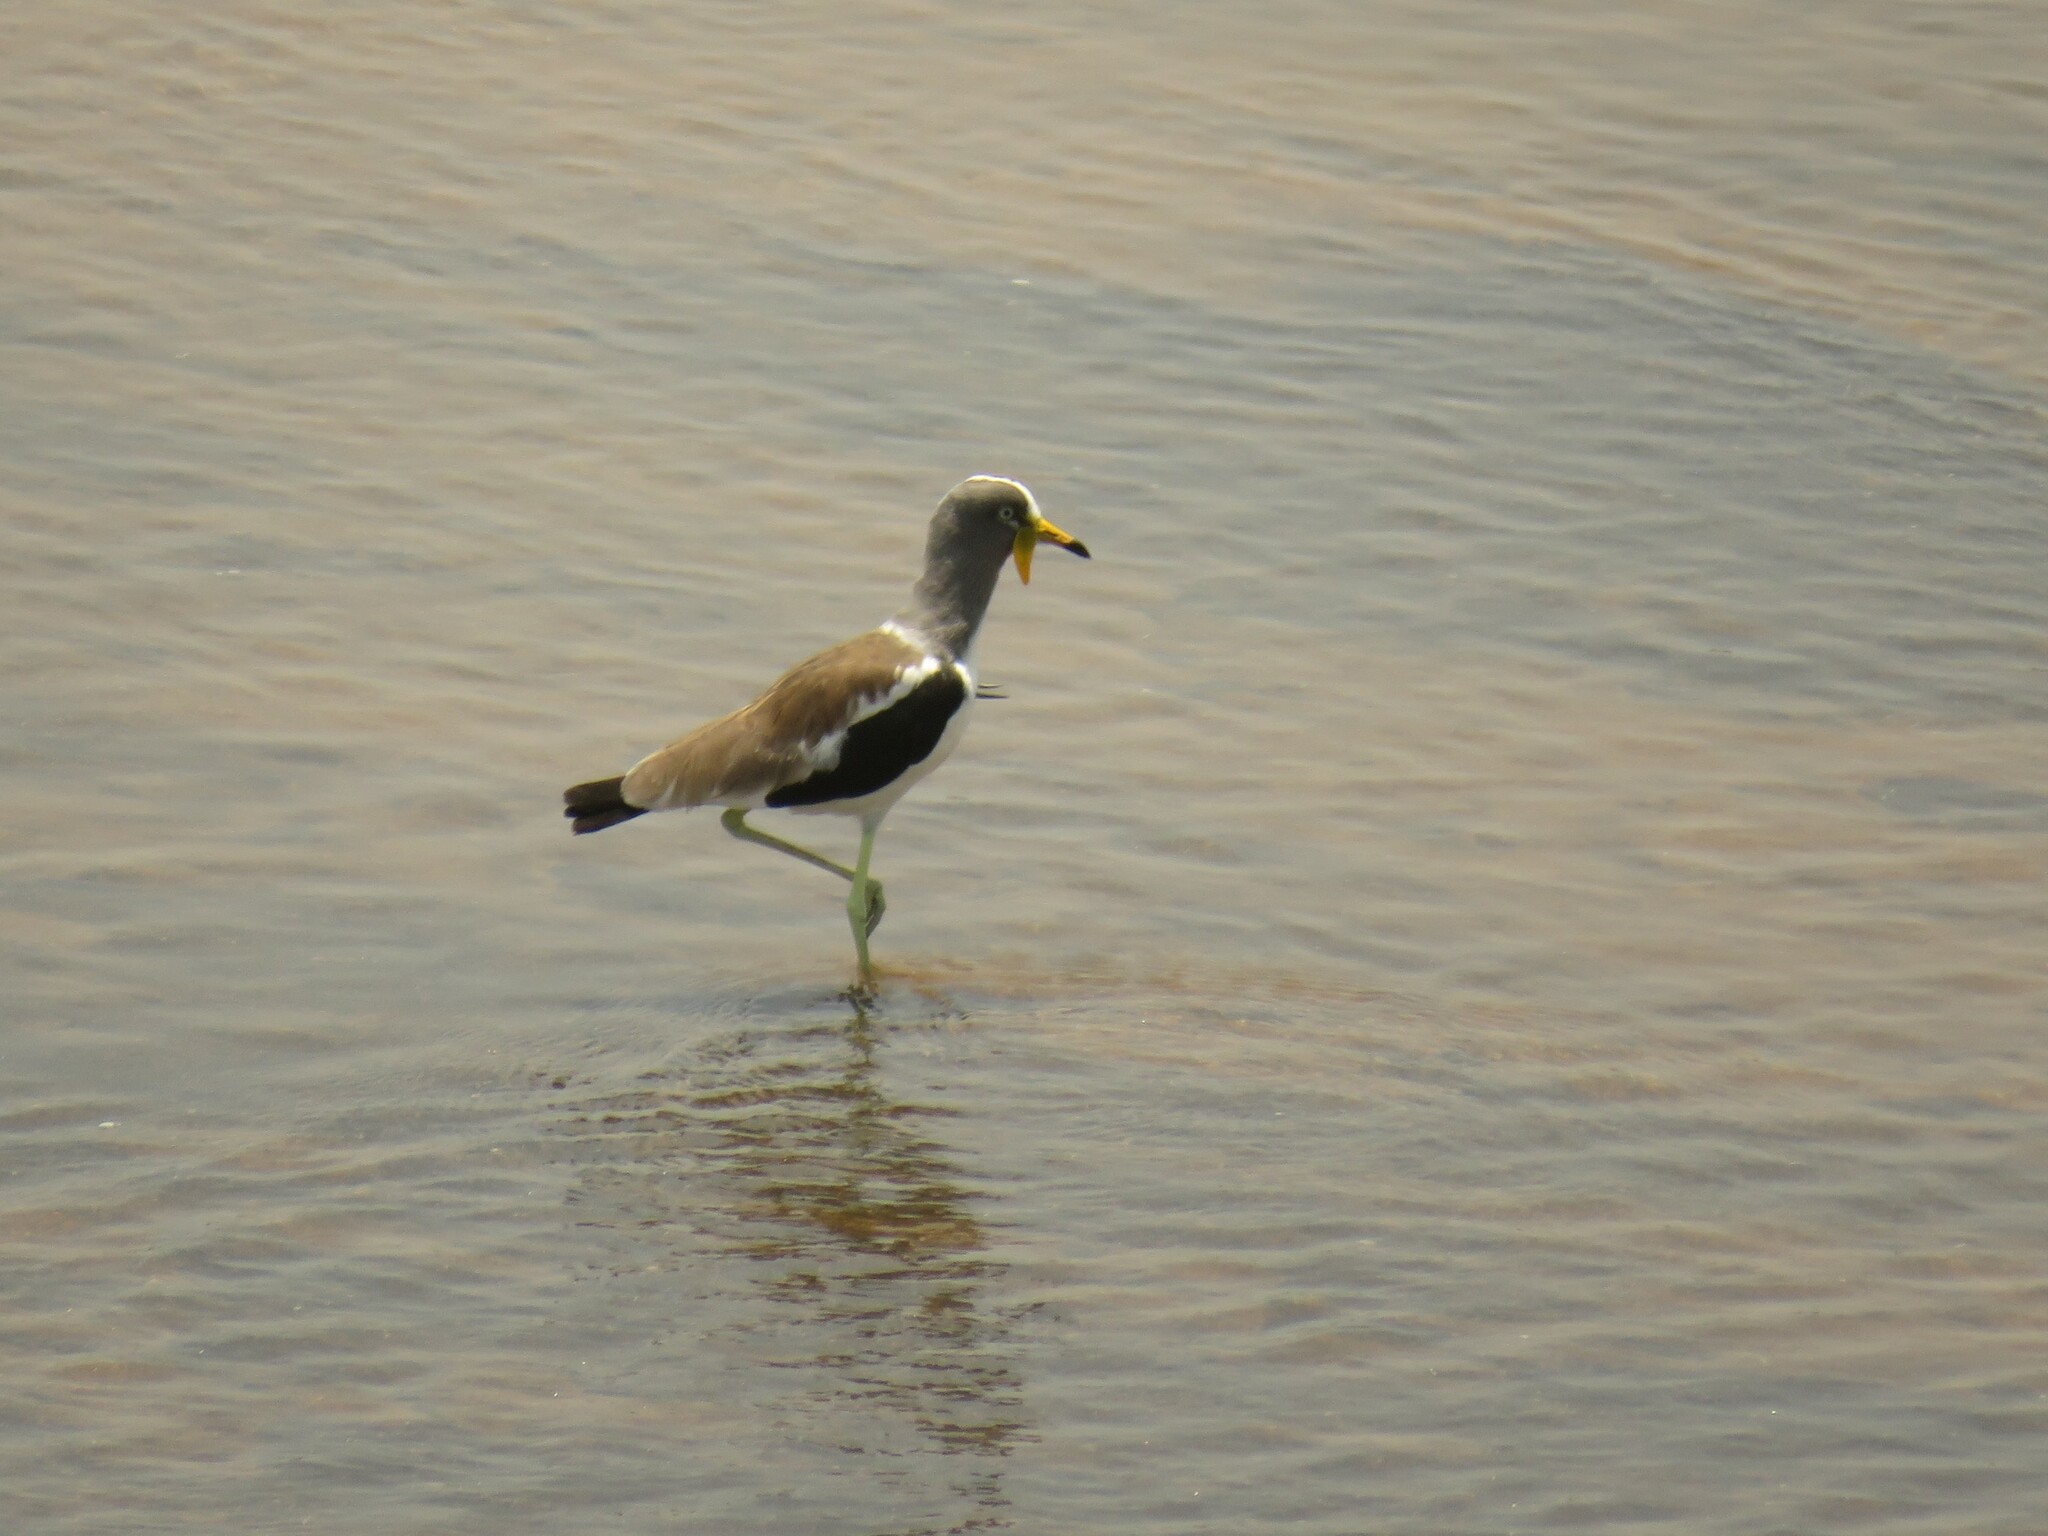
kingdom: Animalia
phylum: Chordata
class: Aves
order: Charadriiformes
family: Charadriidae
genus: Vanellus
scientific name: Vanellus albiceps
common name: White-crowned lapwing
